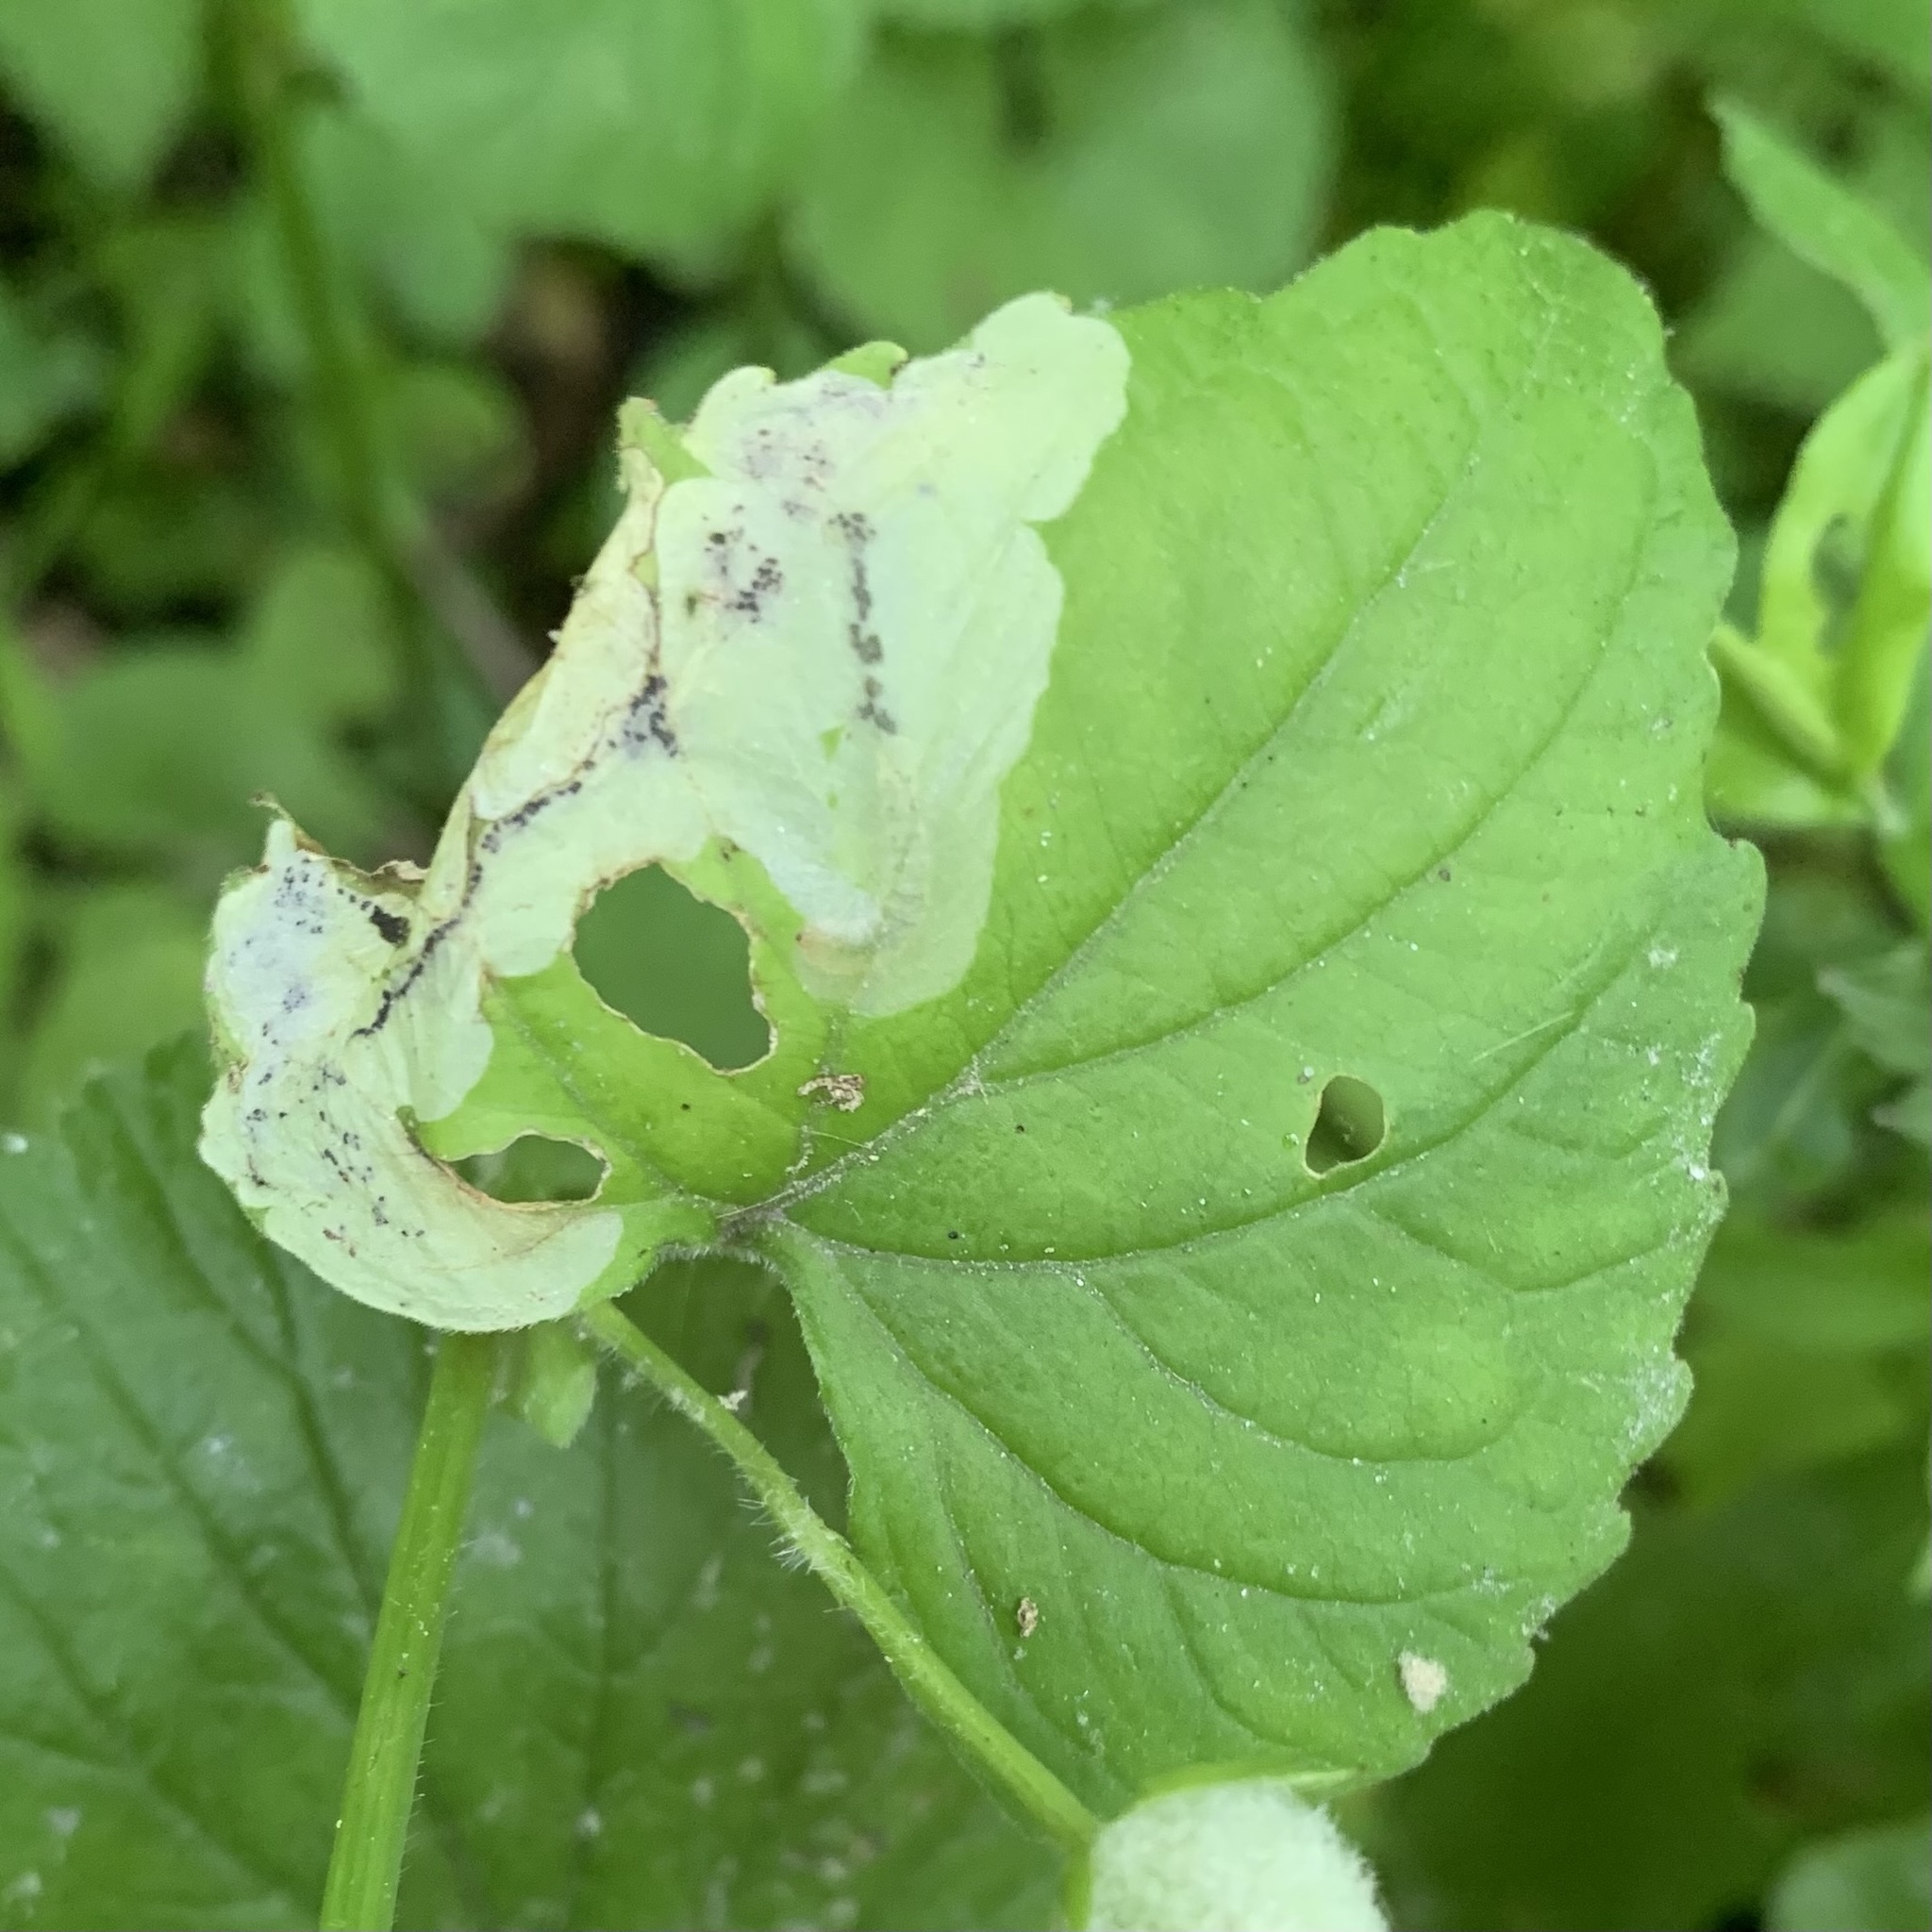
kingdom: Animalia
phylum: Arthropoda
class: Insecta
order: Hymenoptera
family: Tenthredinidae
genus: Nefusa
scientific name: Nefusa ambigua
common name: Violet leafmining sawfly
